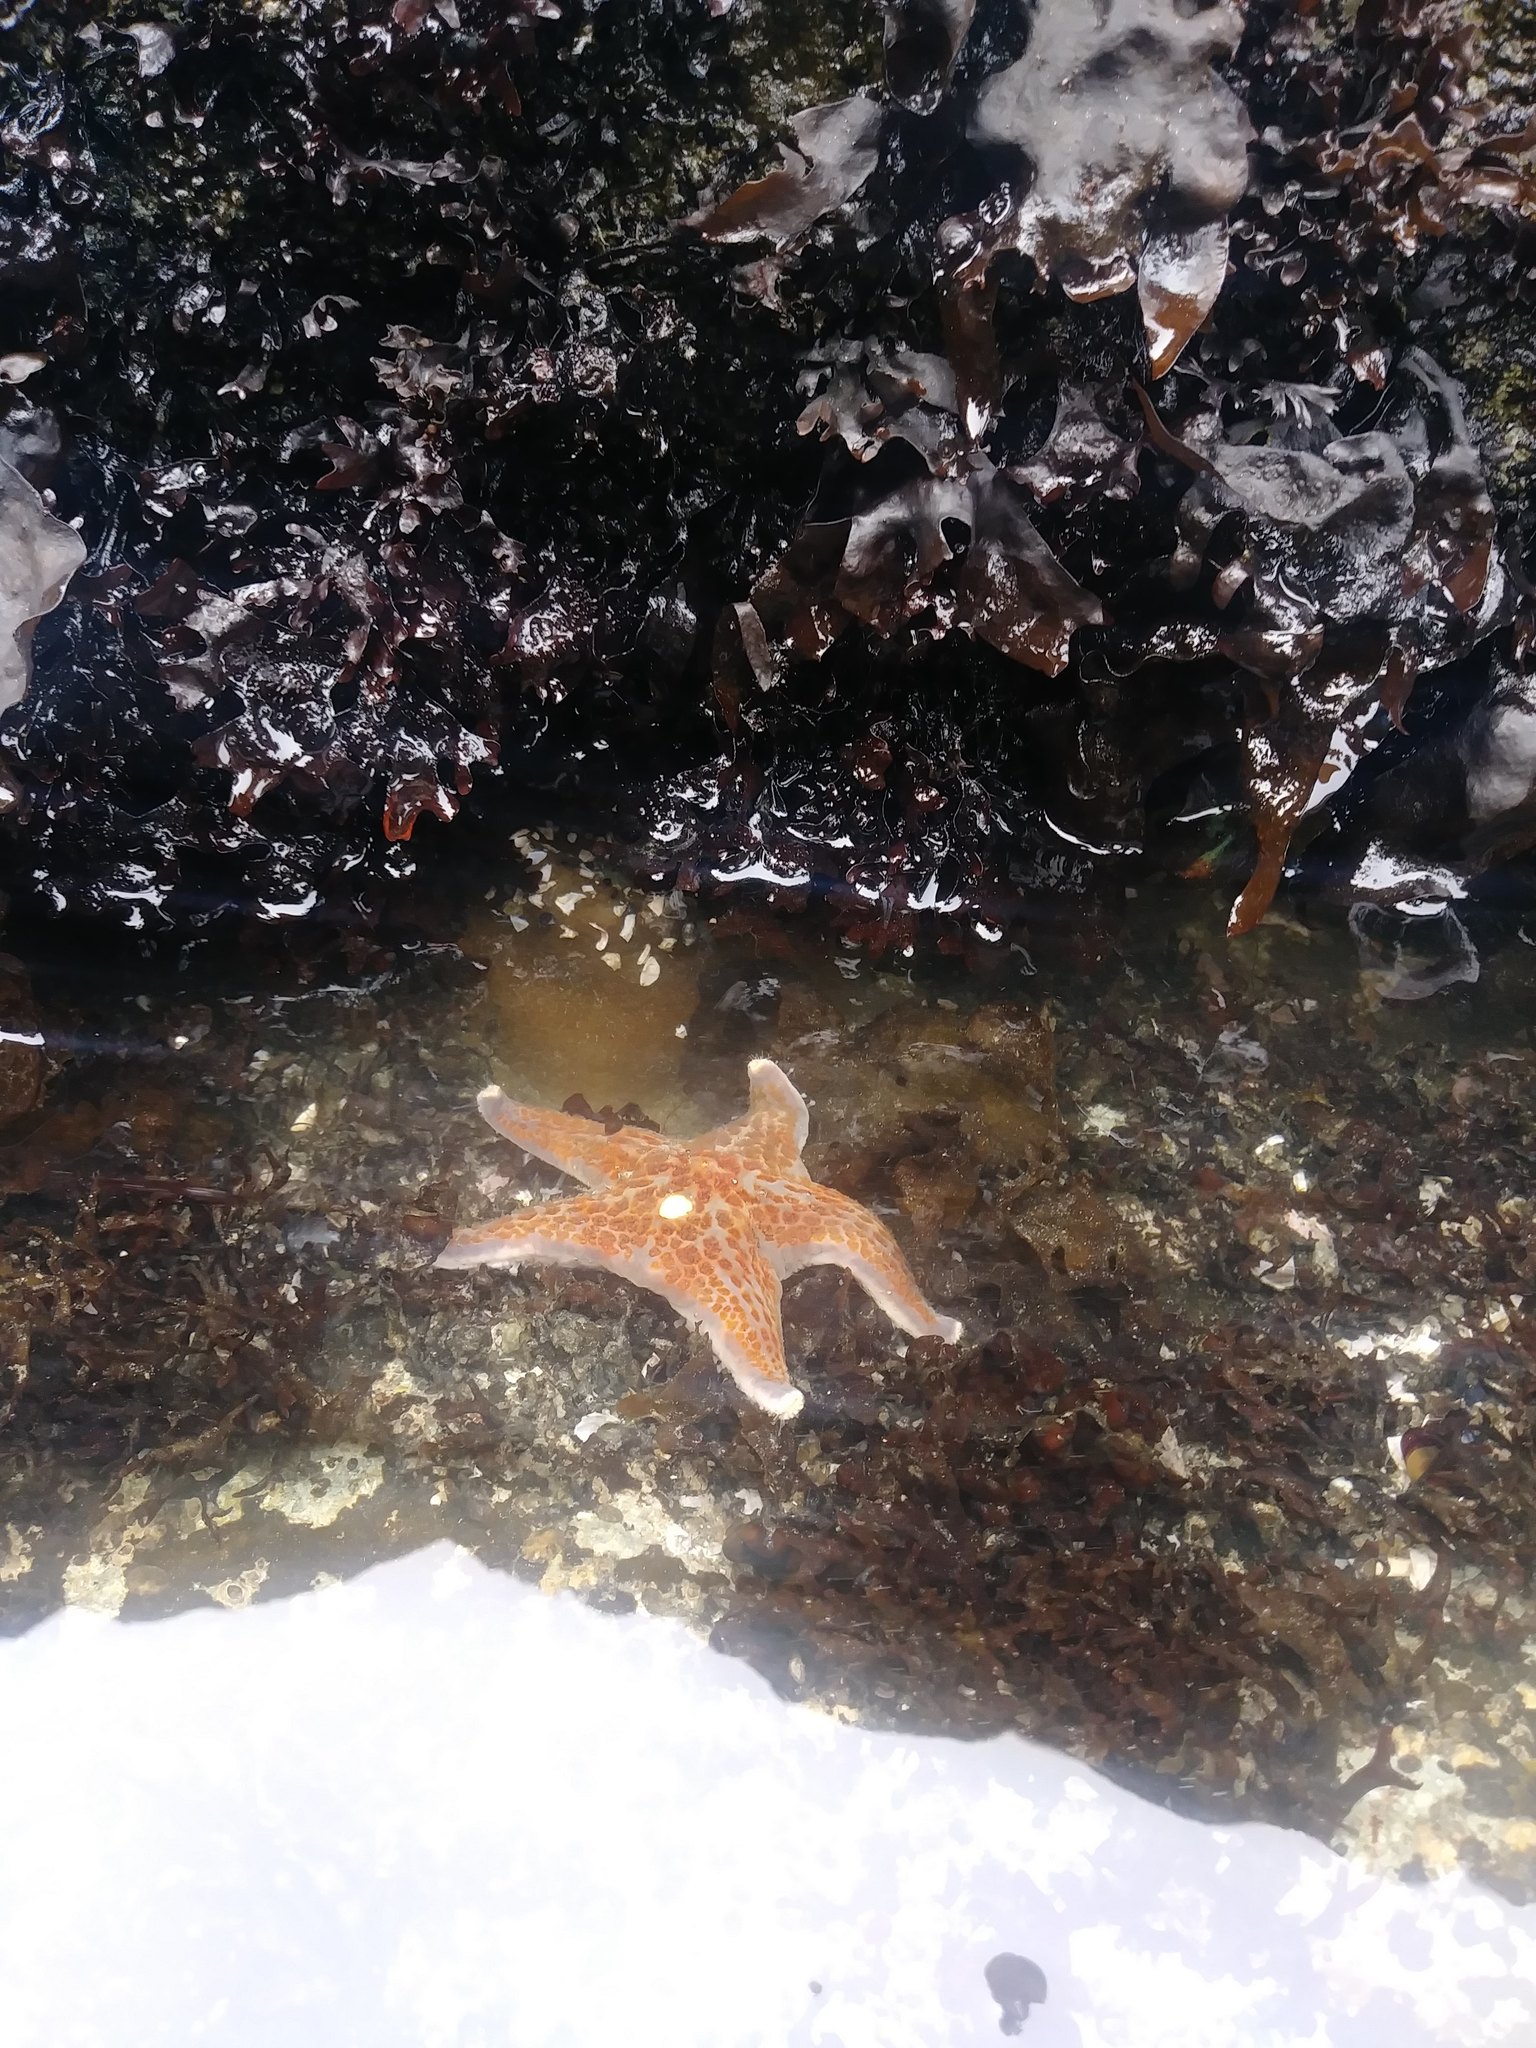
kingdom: Animalia
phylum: Echinodermata
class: Asteroidea
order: Valvatida
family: Asteropseidae
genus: Dermasterias
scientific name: Dermasterias imbricata
